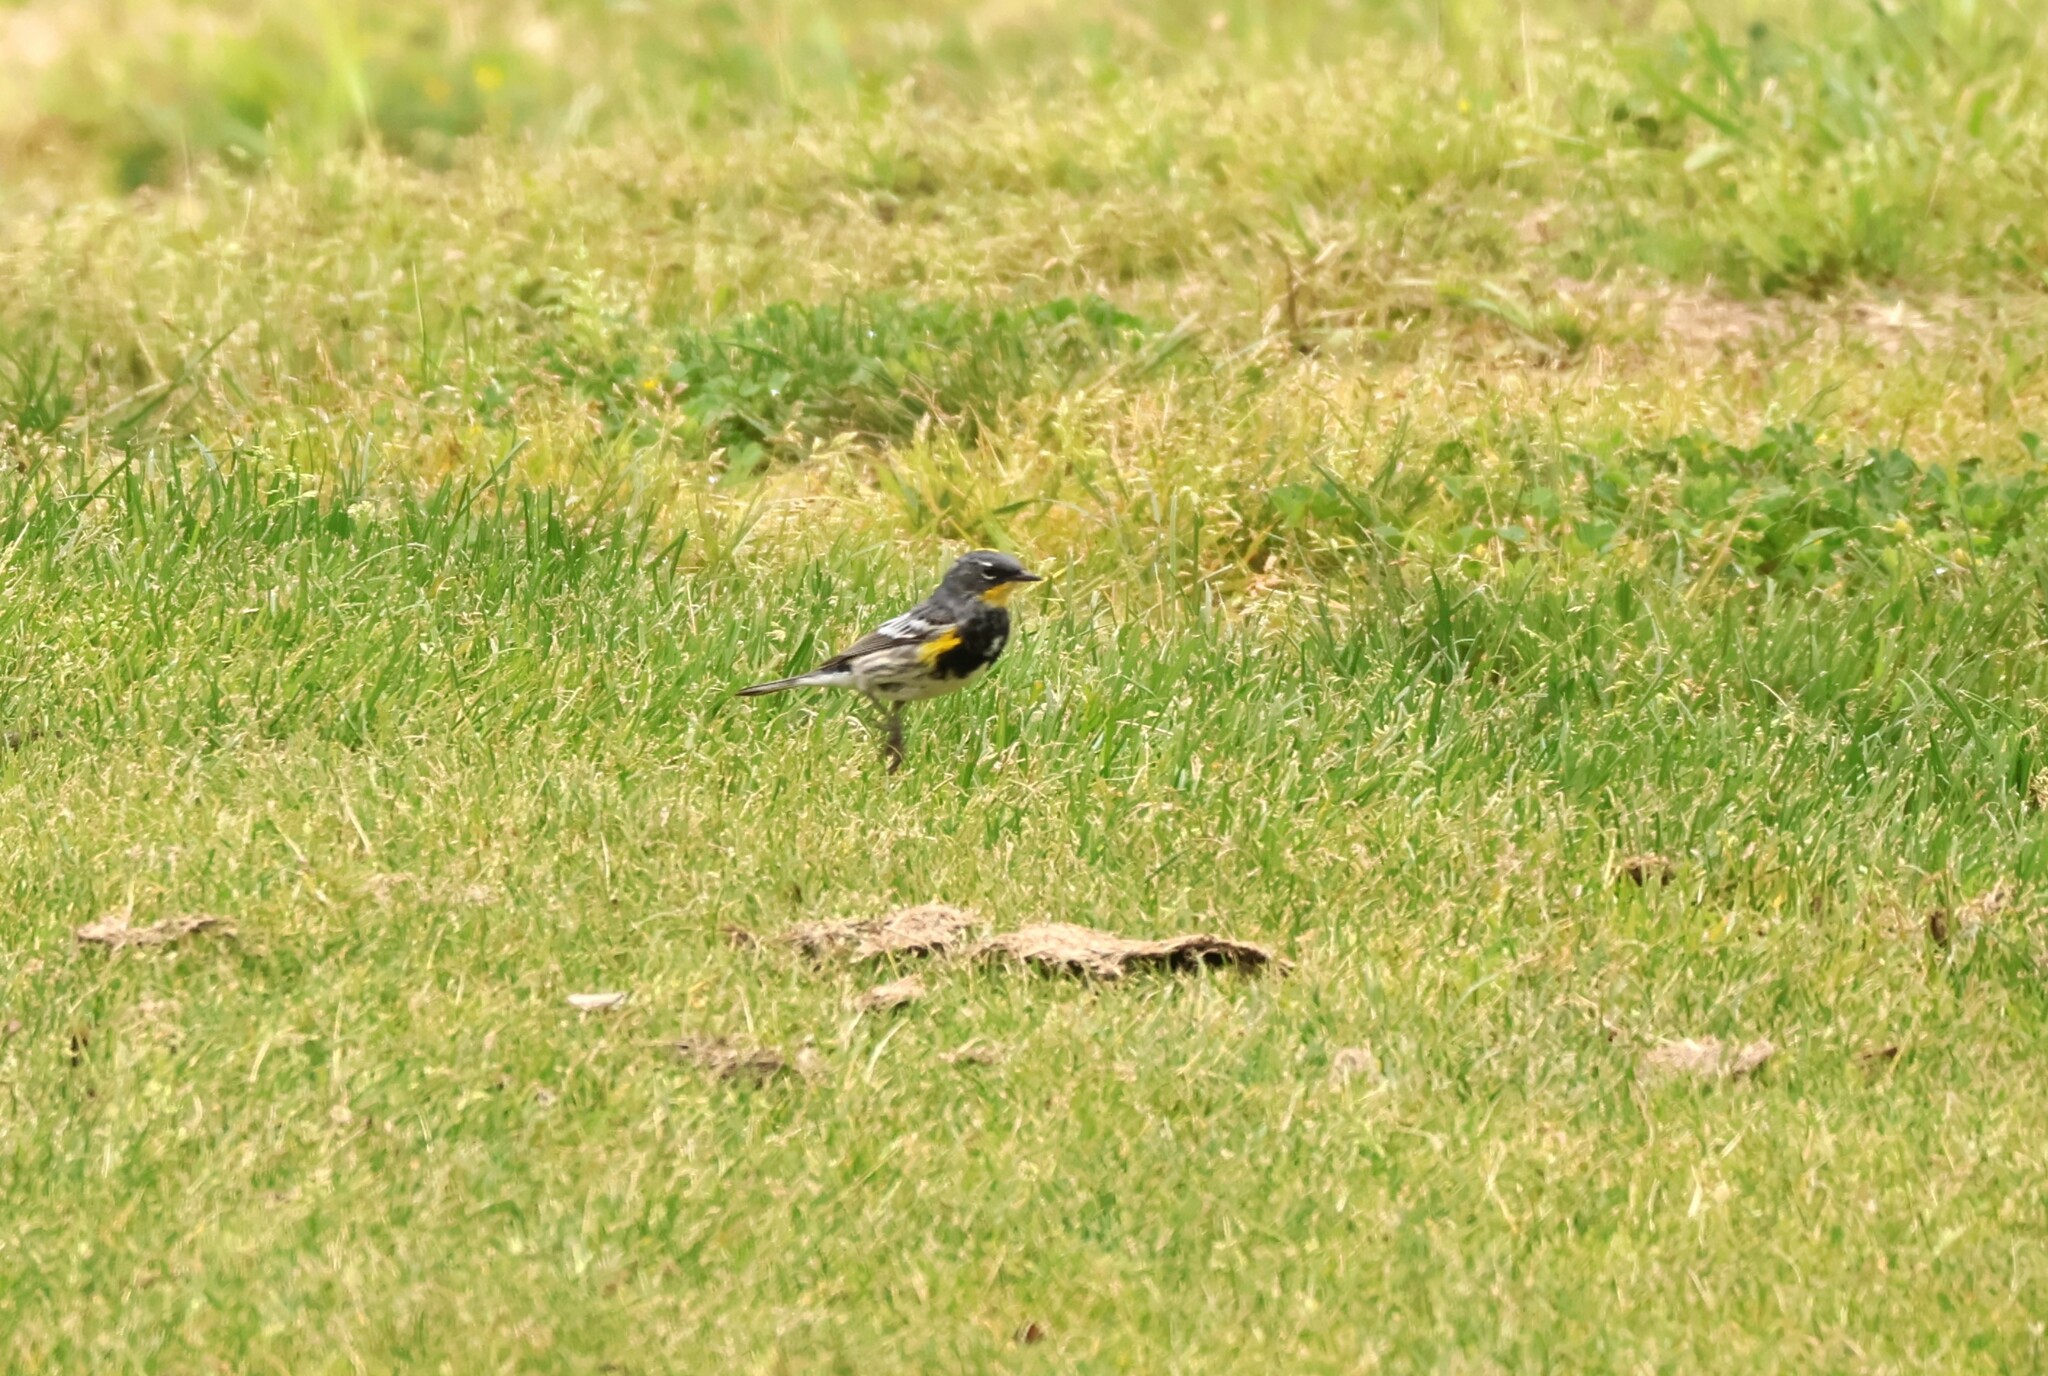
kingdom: Animalia
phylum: Chordata
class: Aves
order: Passeriformes
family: Parulidae
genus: Setophaga
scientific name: Setophaga auduboni
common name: Audubon's warbler
